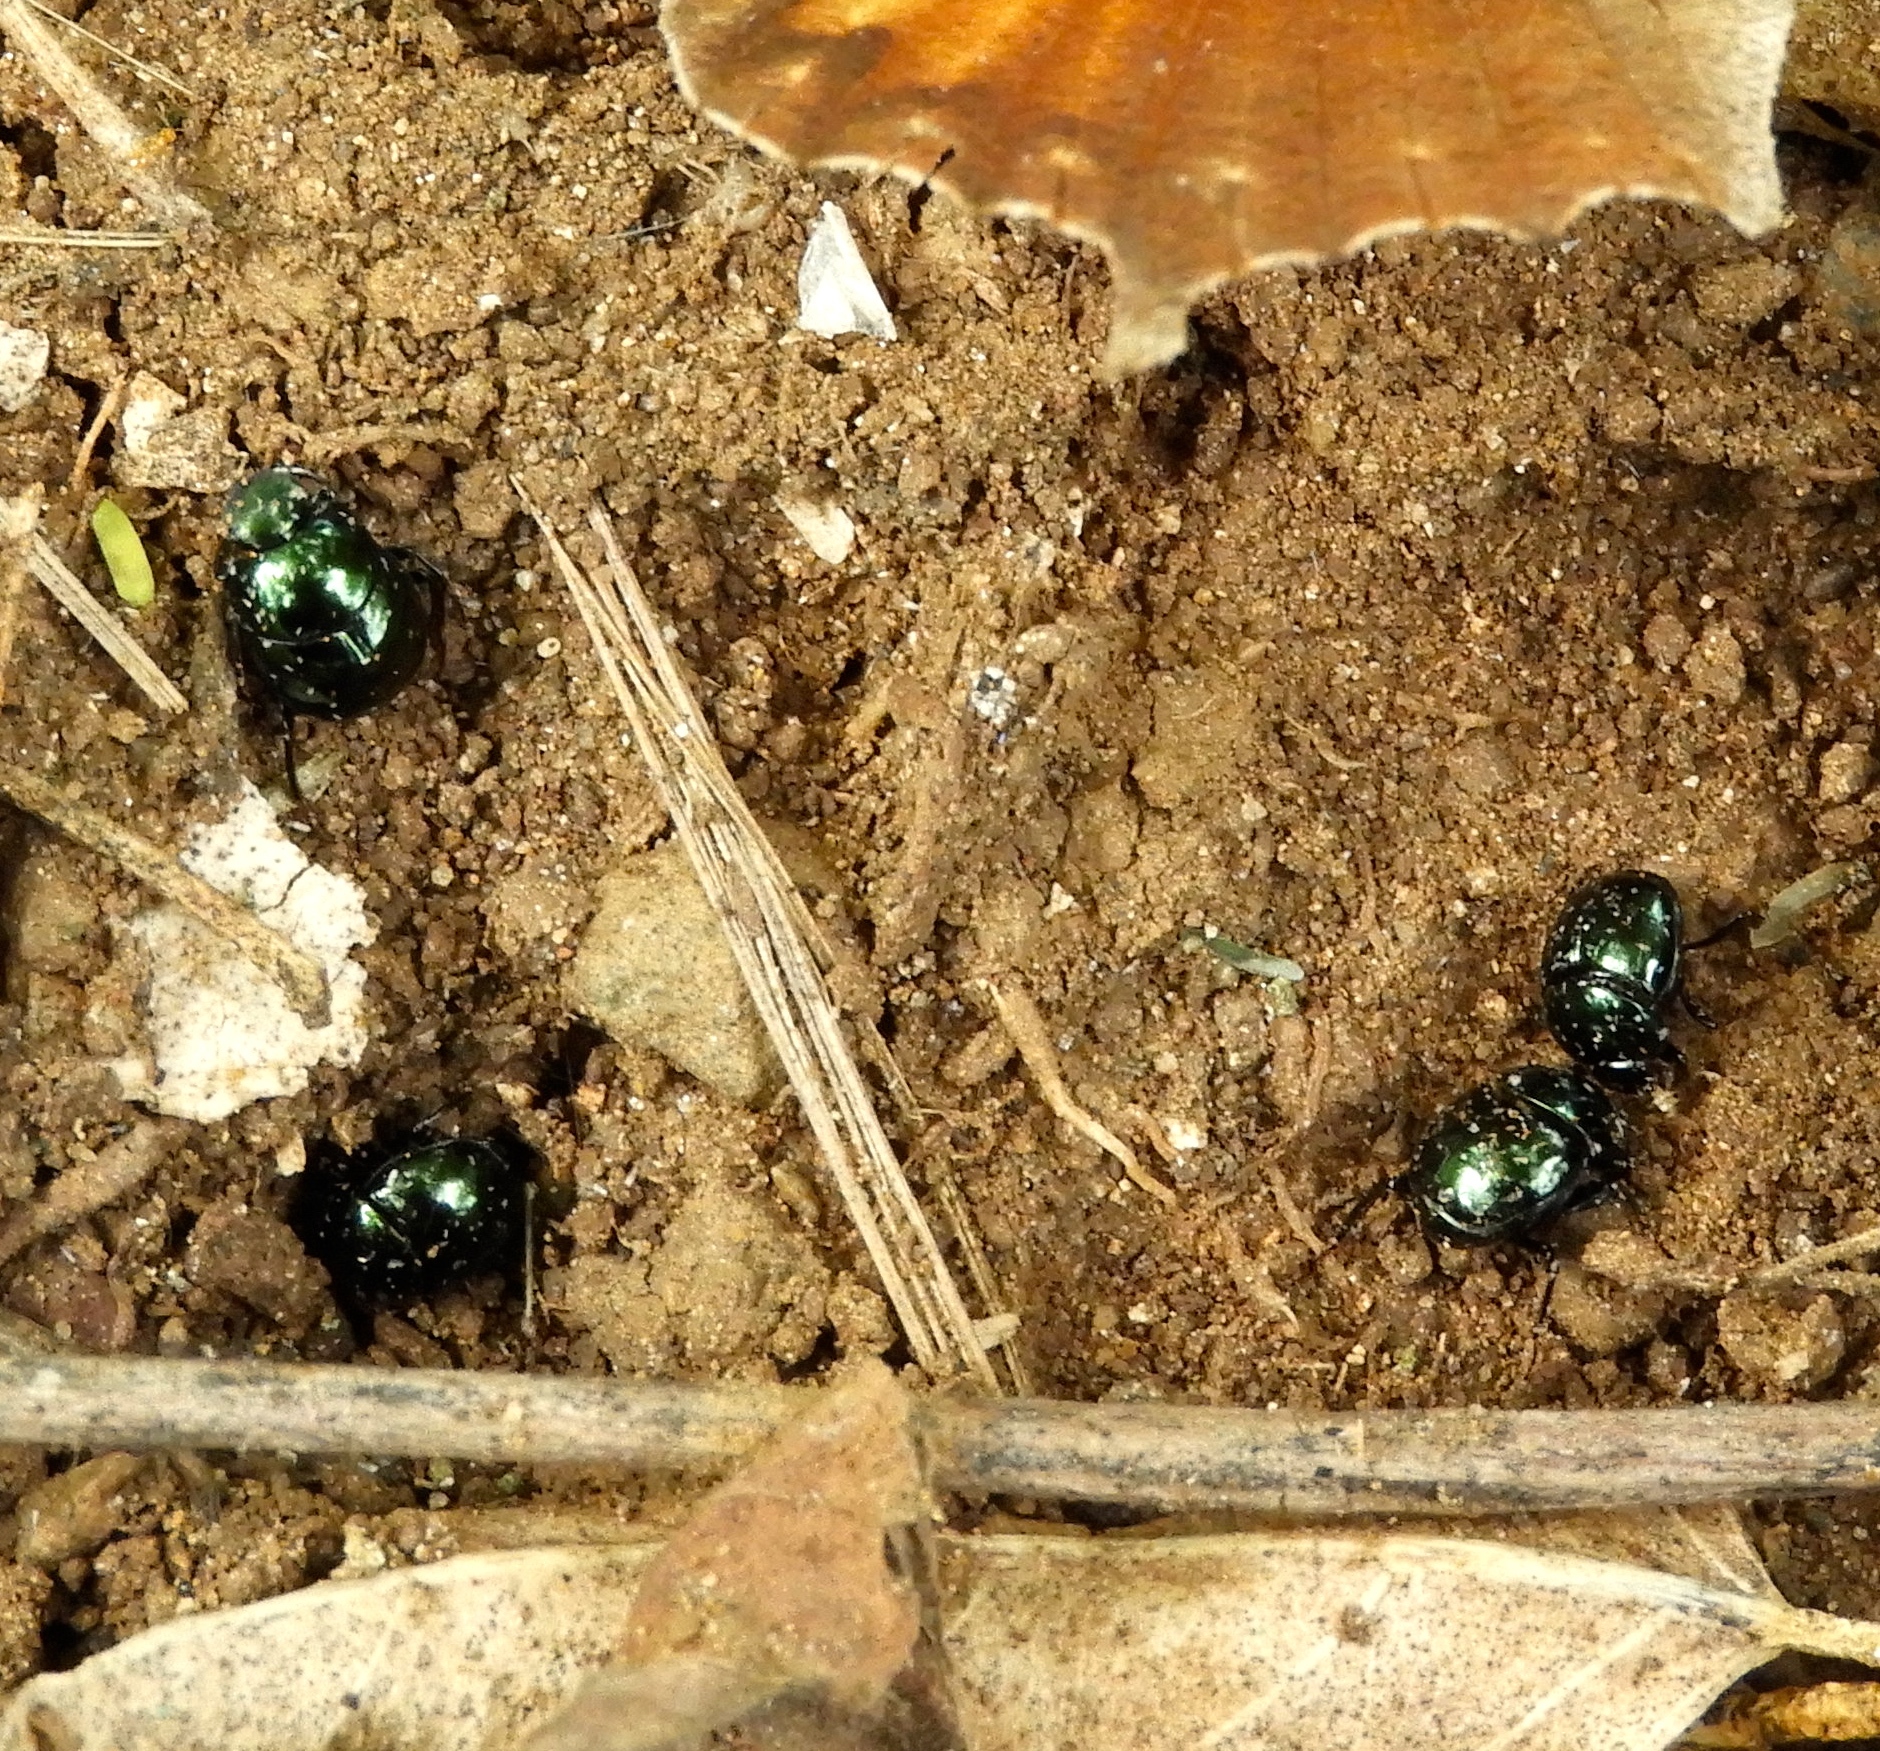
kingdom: Animalia
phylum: Arthropoda
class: Insecta
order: Coleoptera
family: Scarabaeidae
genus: Canthon
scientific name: Canthon
